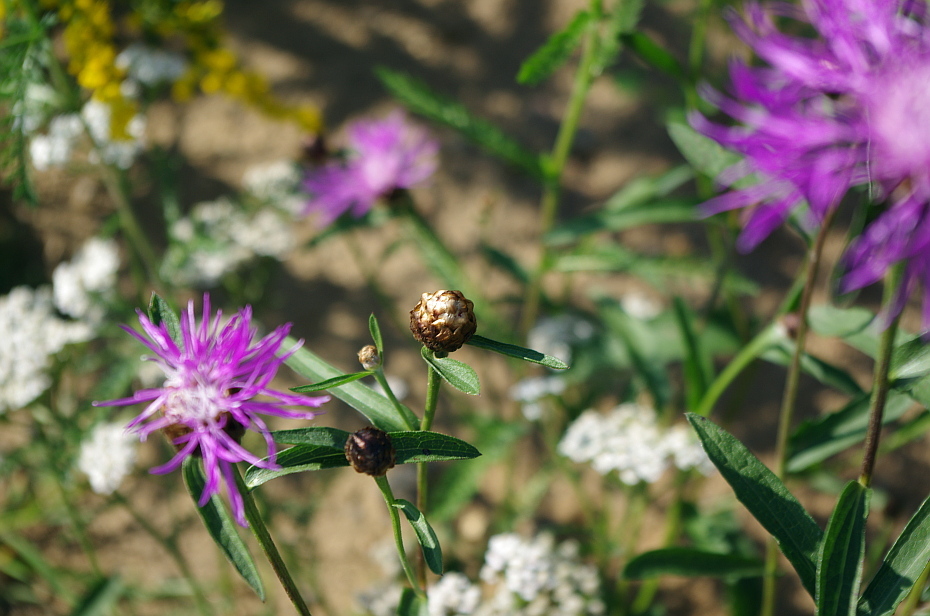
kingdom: Plantae
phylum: Tracheophyta
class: Magnoliopsida
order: Asterales
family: Asteraceae
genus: Centaurea
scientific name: Centaurea jacea
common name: Brown knapweed
